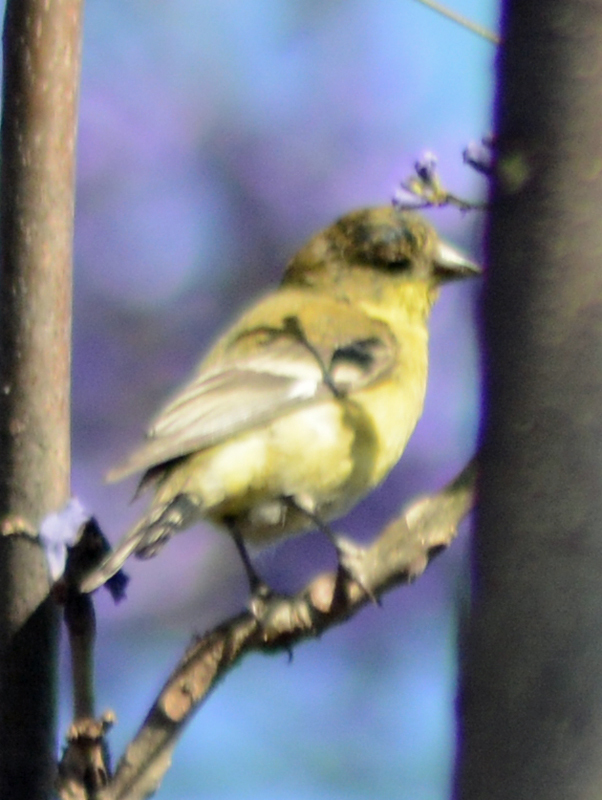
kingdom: Animalia
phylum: Chordata
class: Aves
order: Passeriformes
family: Fringillidae
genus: Spinus
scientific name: Spinus psaltria
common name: Lesser goldfinch
